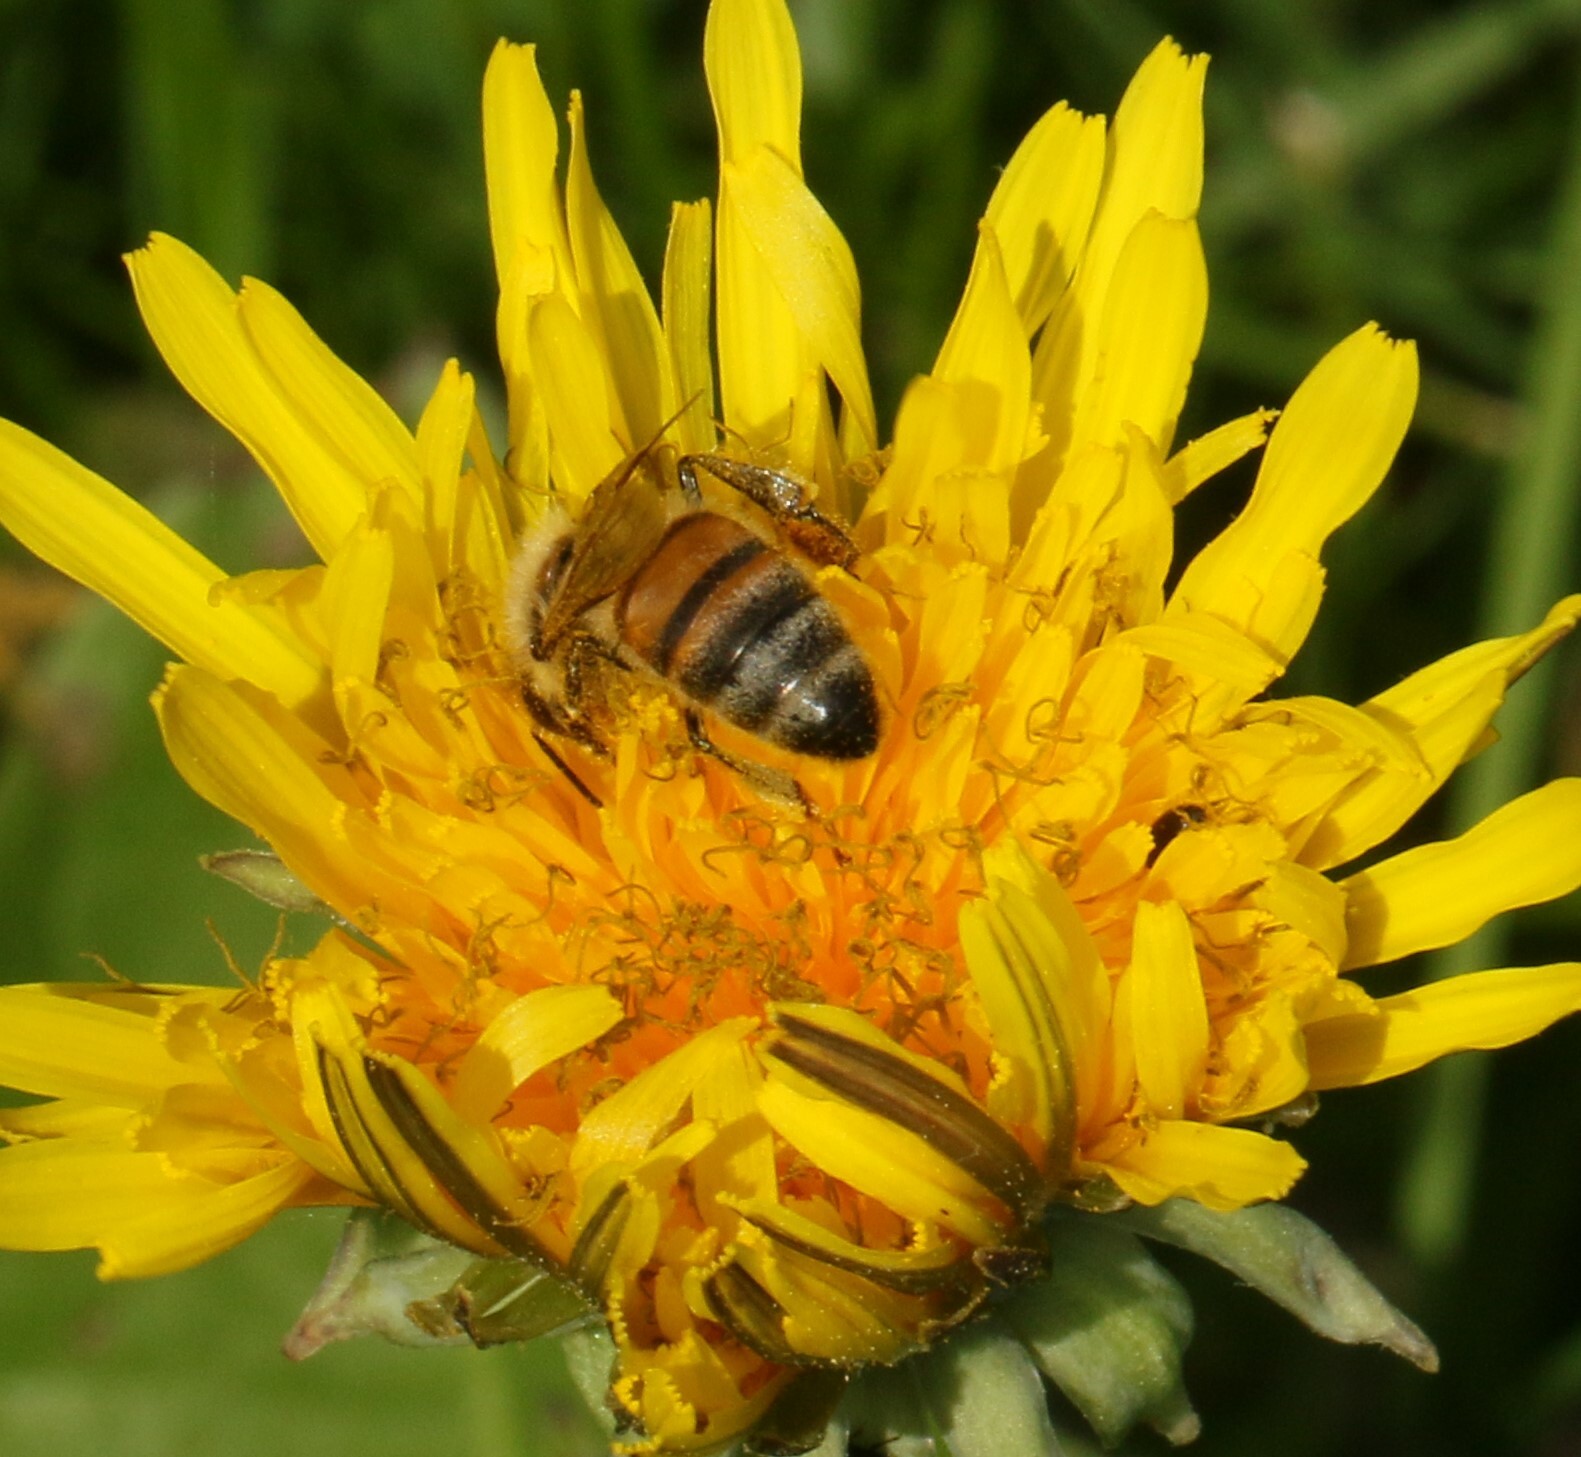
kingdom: Animalia
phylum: Arthropoda
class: Insecta
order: Hymenoptera
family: Apidae
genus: Apis
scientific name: Apis mellifera
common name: Honey bee
